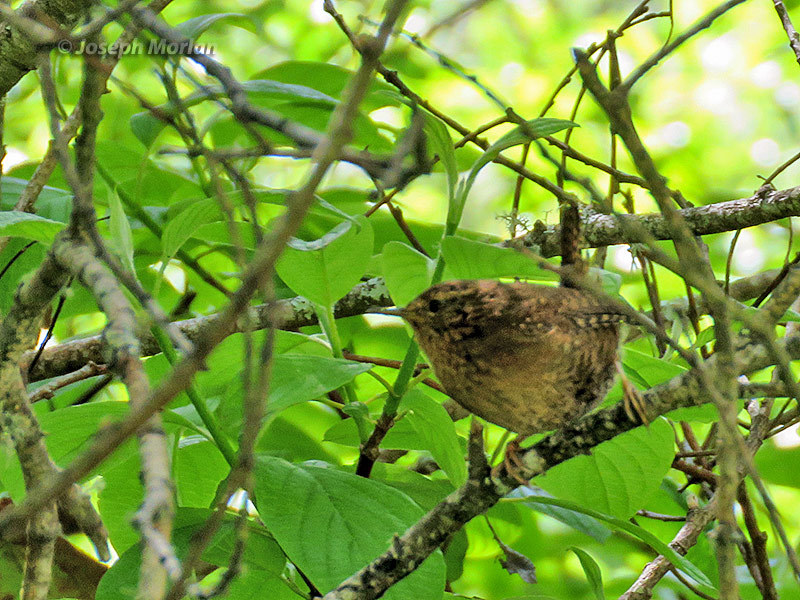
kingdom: Animalia
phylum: Chordata
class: Aves
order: Passeriformes
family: Troglodytidae
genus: Troglodytes
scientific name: Troglodytes pacificus
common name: Pacific wren
